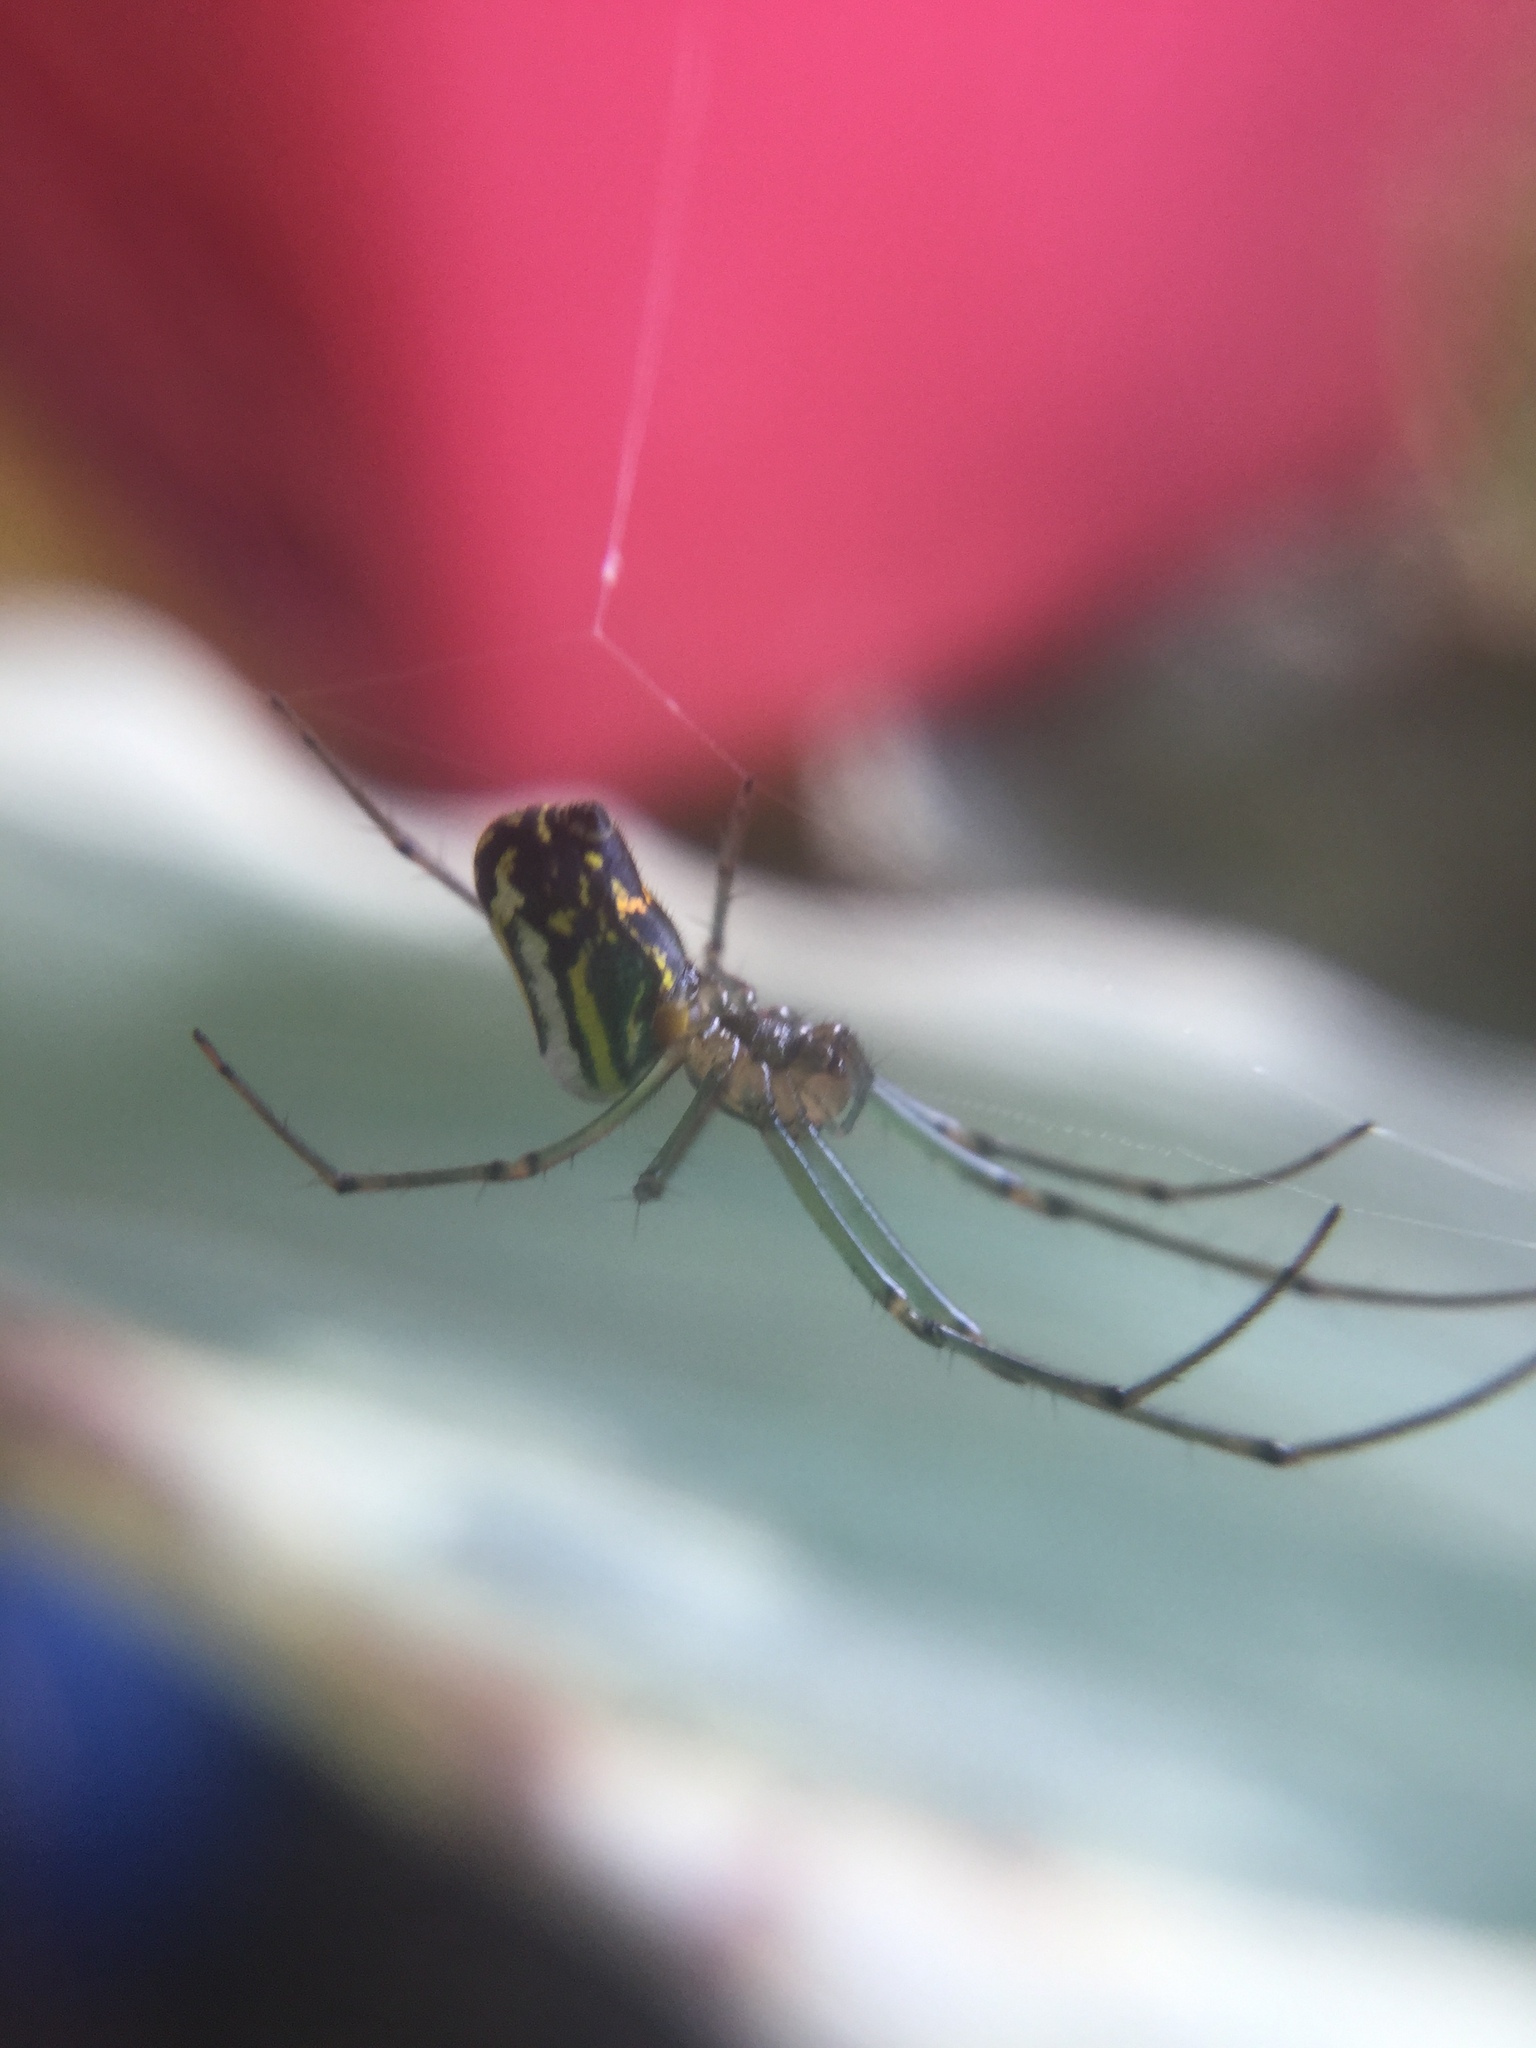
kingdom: Animalia
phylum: Arthropoda
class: Arachnida
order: Araneae
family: Tetragnathidae
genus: Leucauge
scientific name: Leucauge venusta
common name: Longjawed orb weavers
